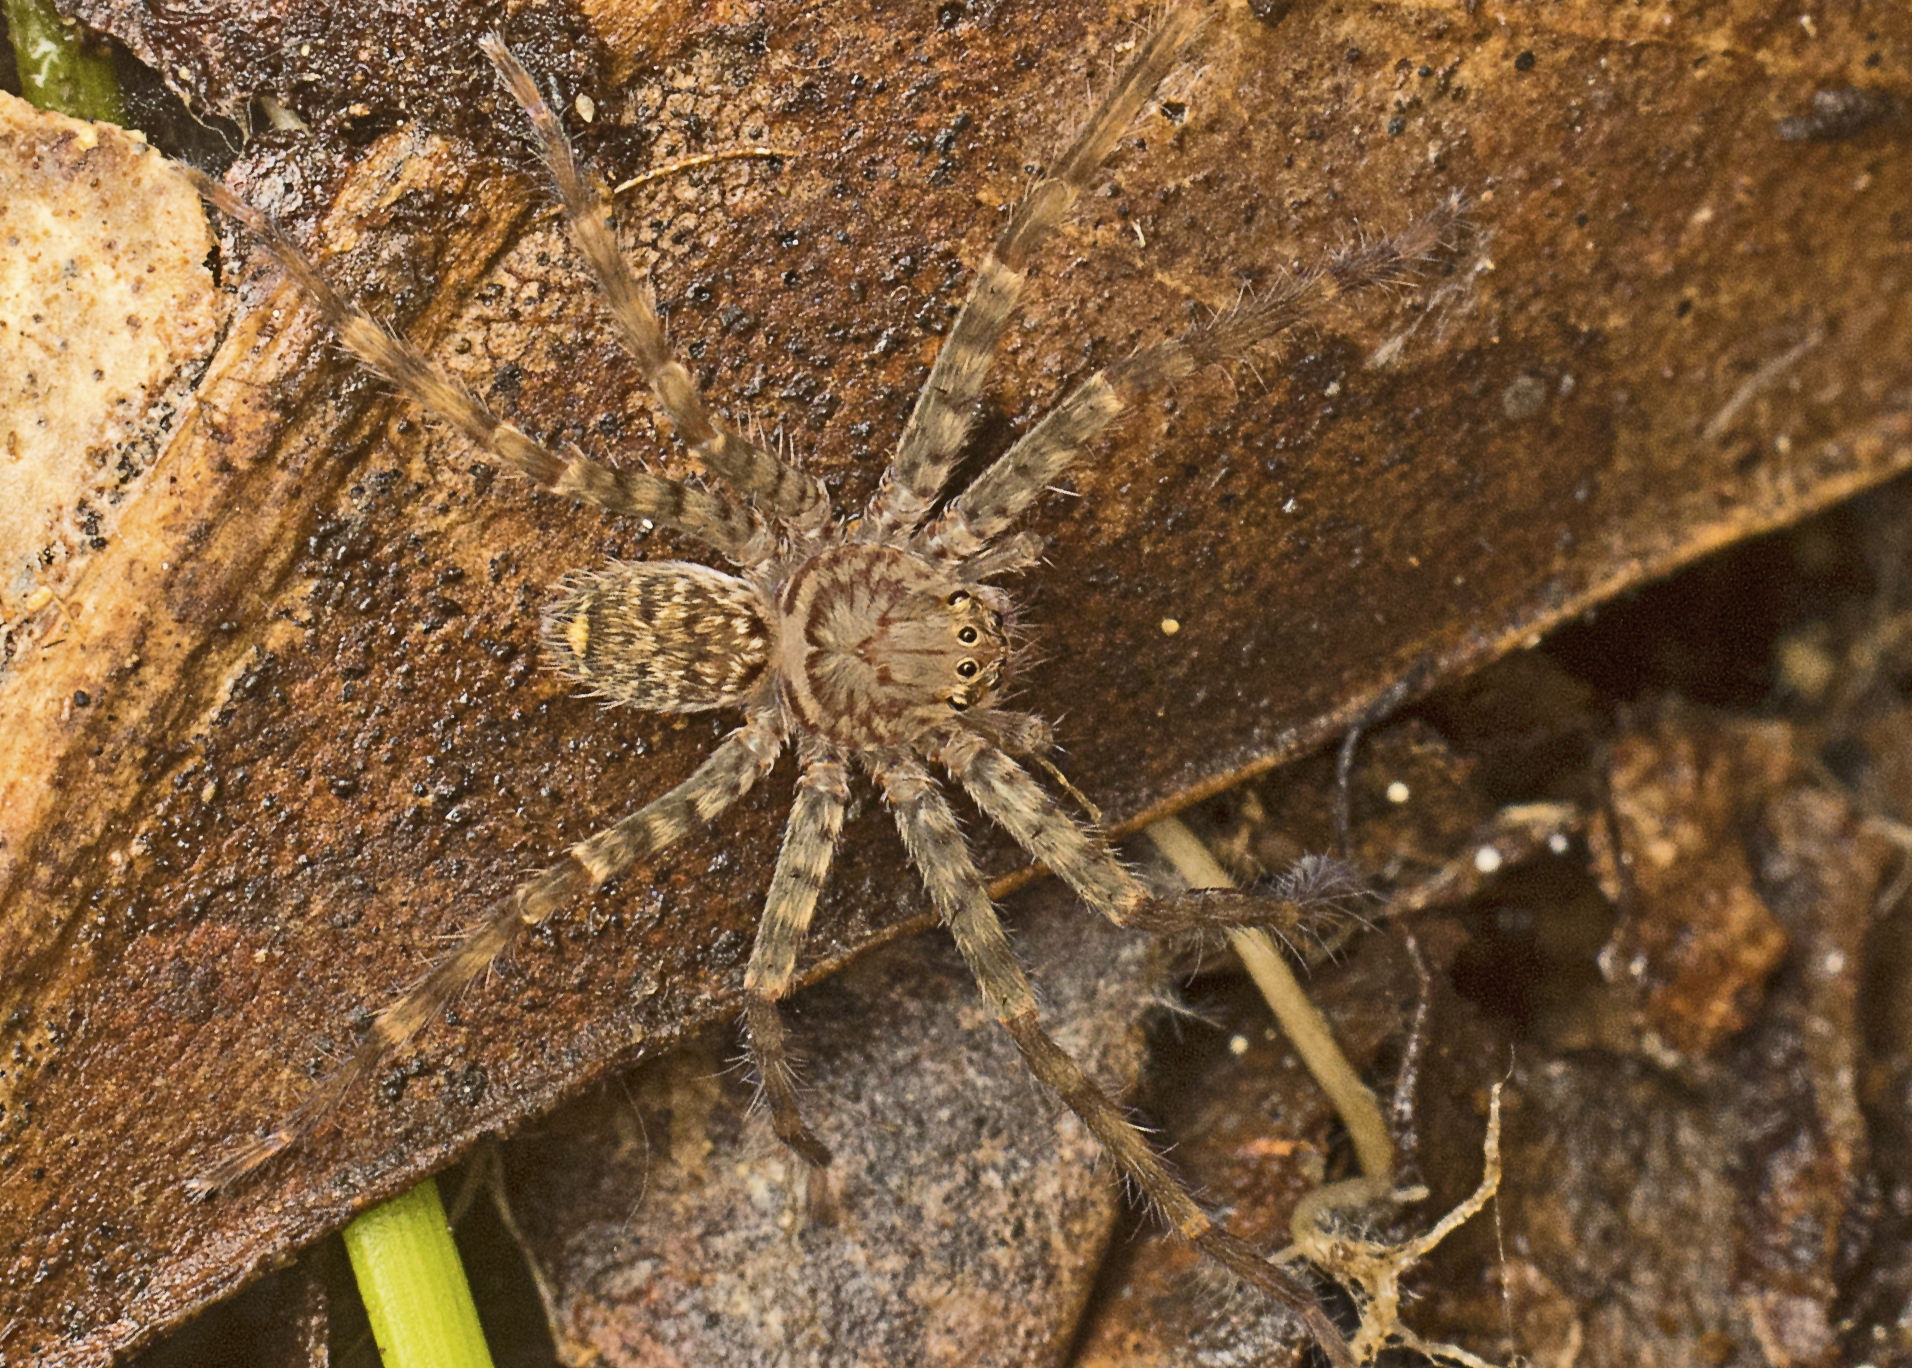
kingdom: Animalia
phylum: Arthropoda
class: Arachnida
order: Araneae
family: Sparassidae
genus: Heteropoda
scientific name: Heteropoda jugulans
